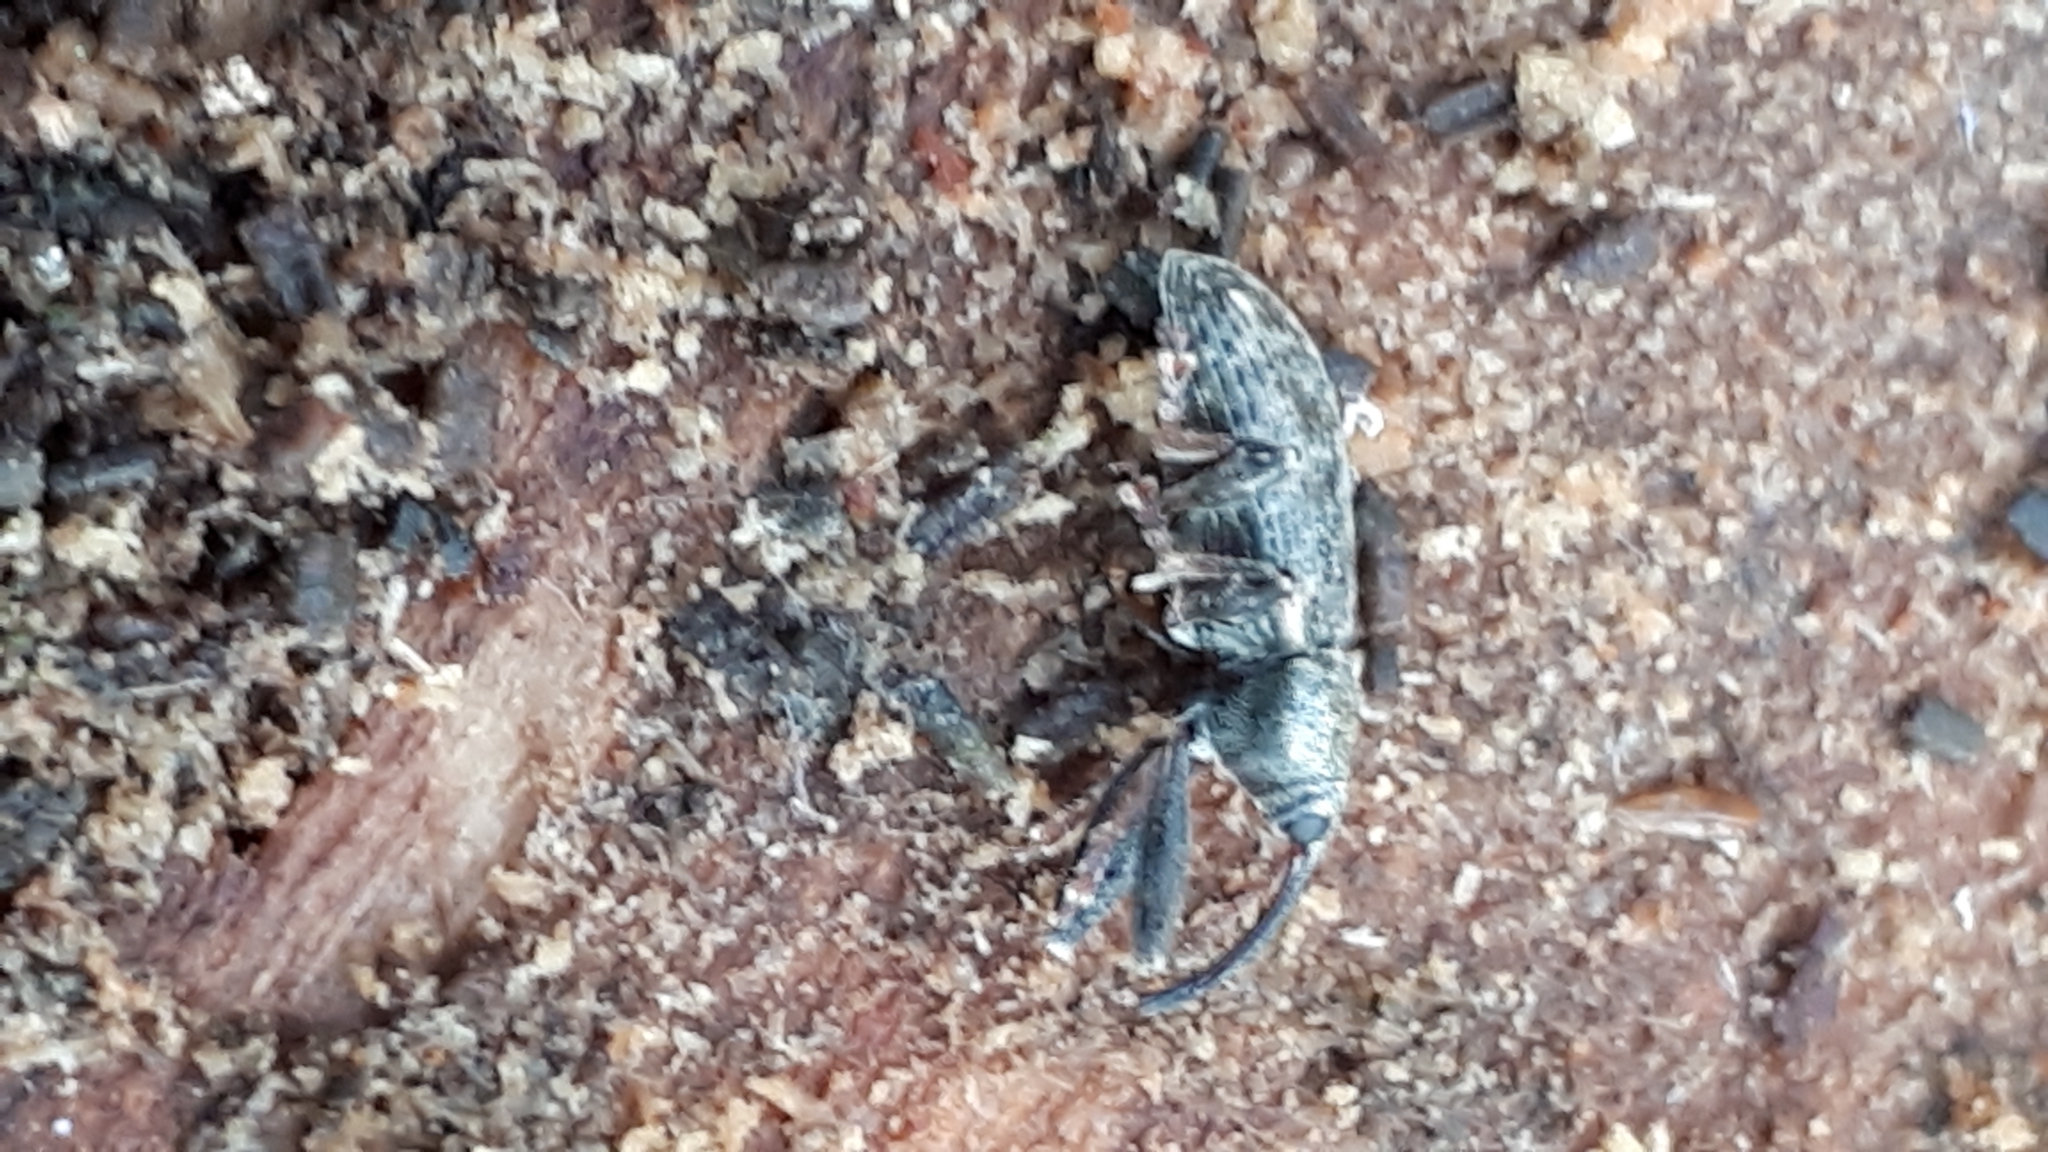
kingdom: Animalia
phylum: Arthropoda
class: Insecta
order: Coleoptera
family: Curculionidae
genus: Dorytomus
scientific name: Dorytomus longimanus
